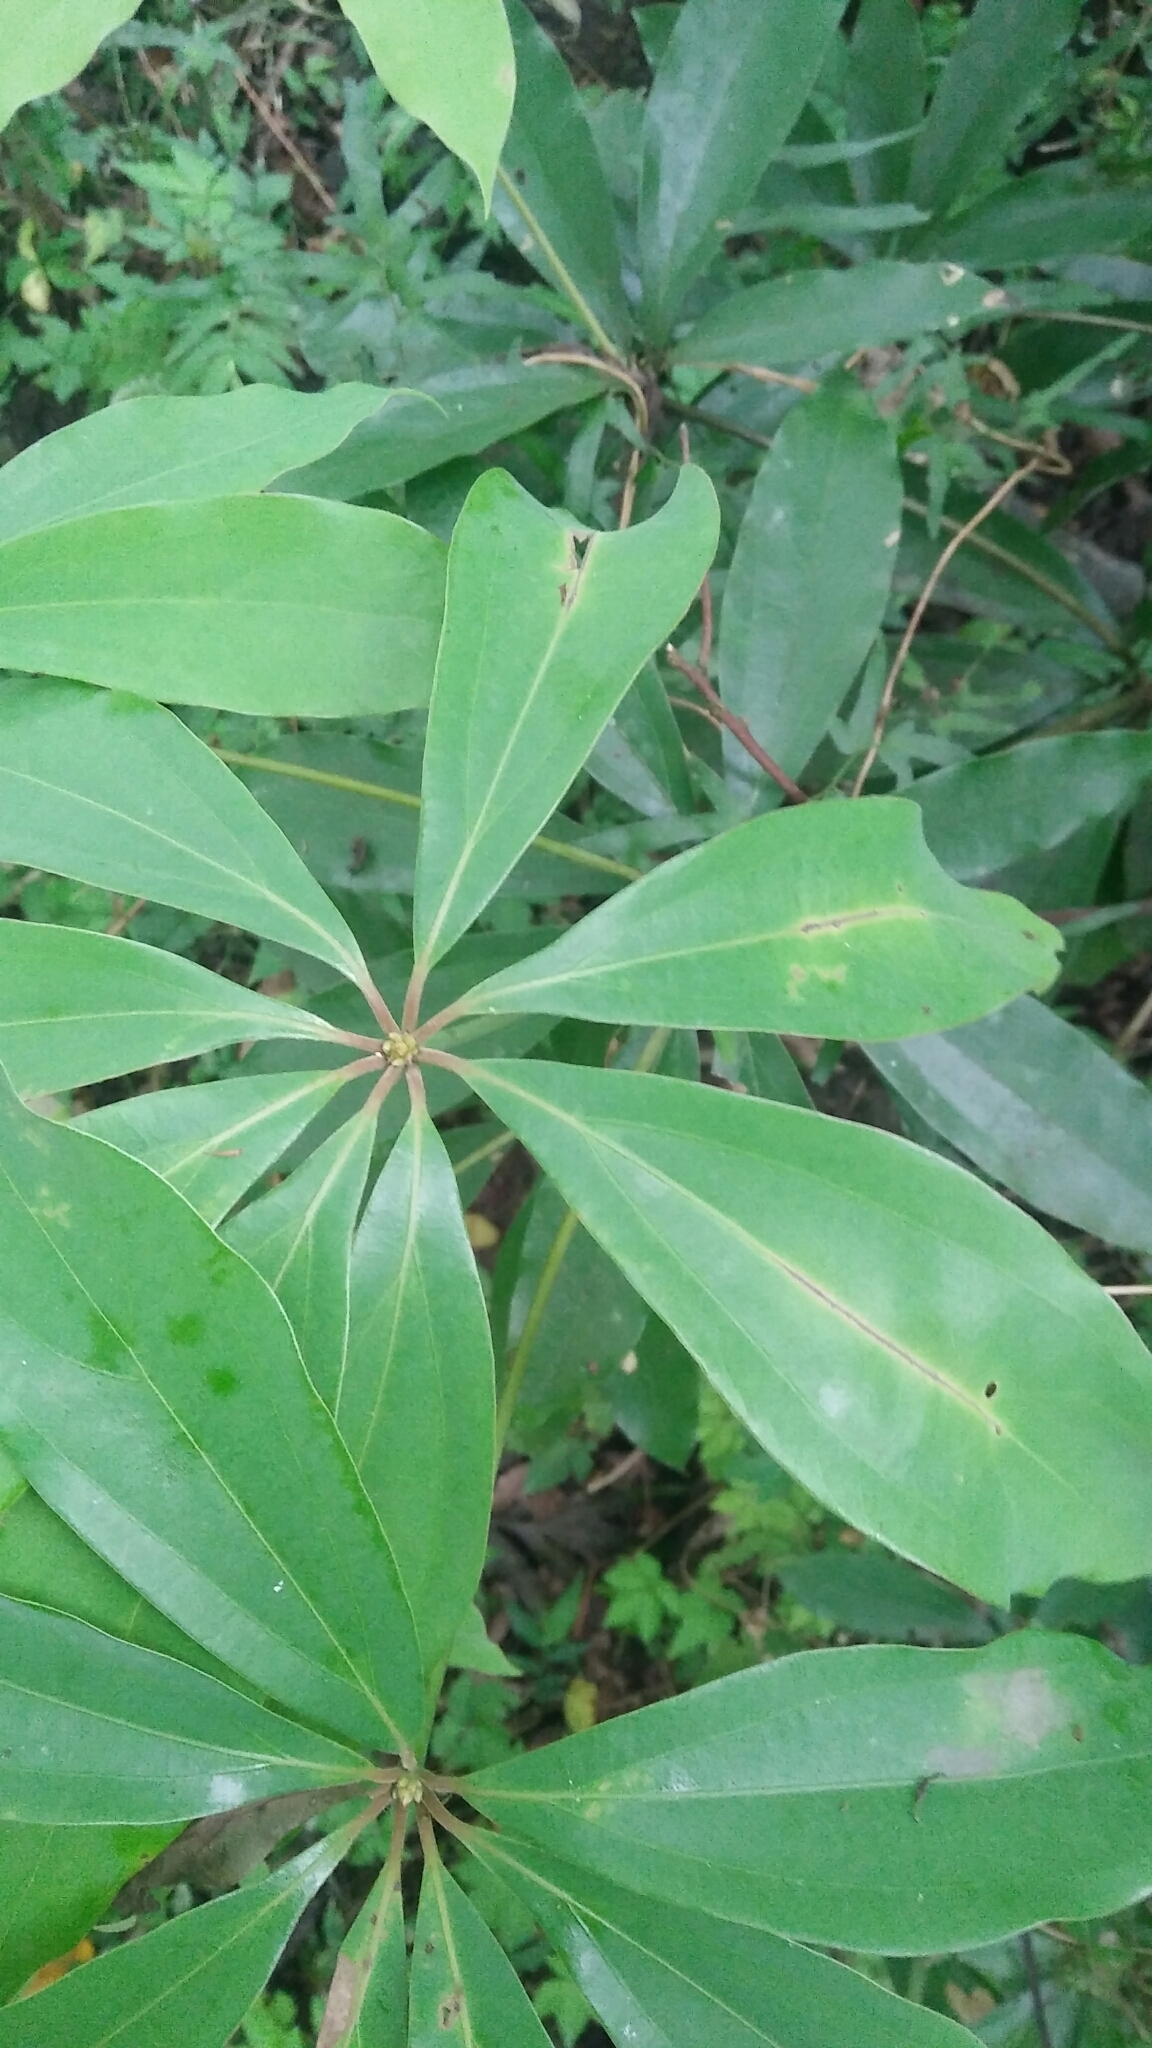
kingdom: Plantae
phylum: Tracheophyta
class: Magnoliopsida
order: Laurales
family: Lauraceae
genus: Neolitsea
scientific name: Neolitsea konishii
